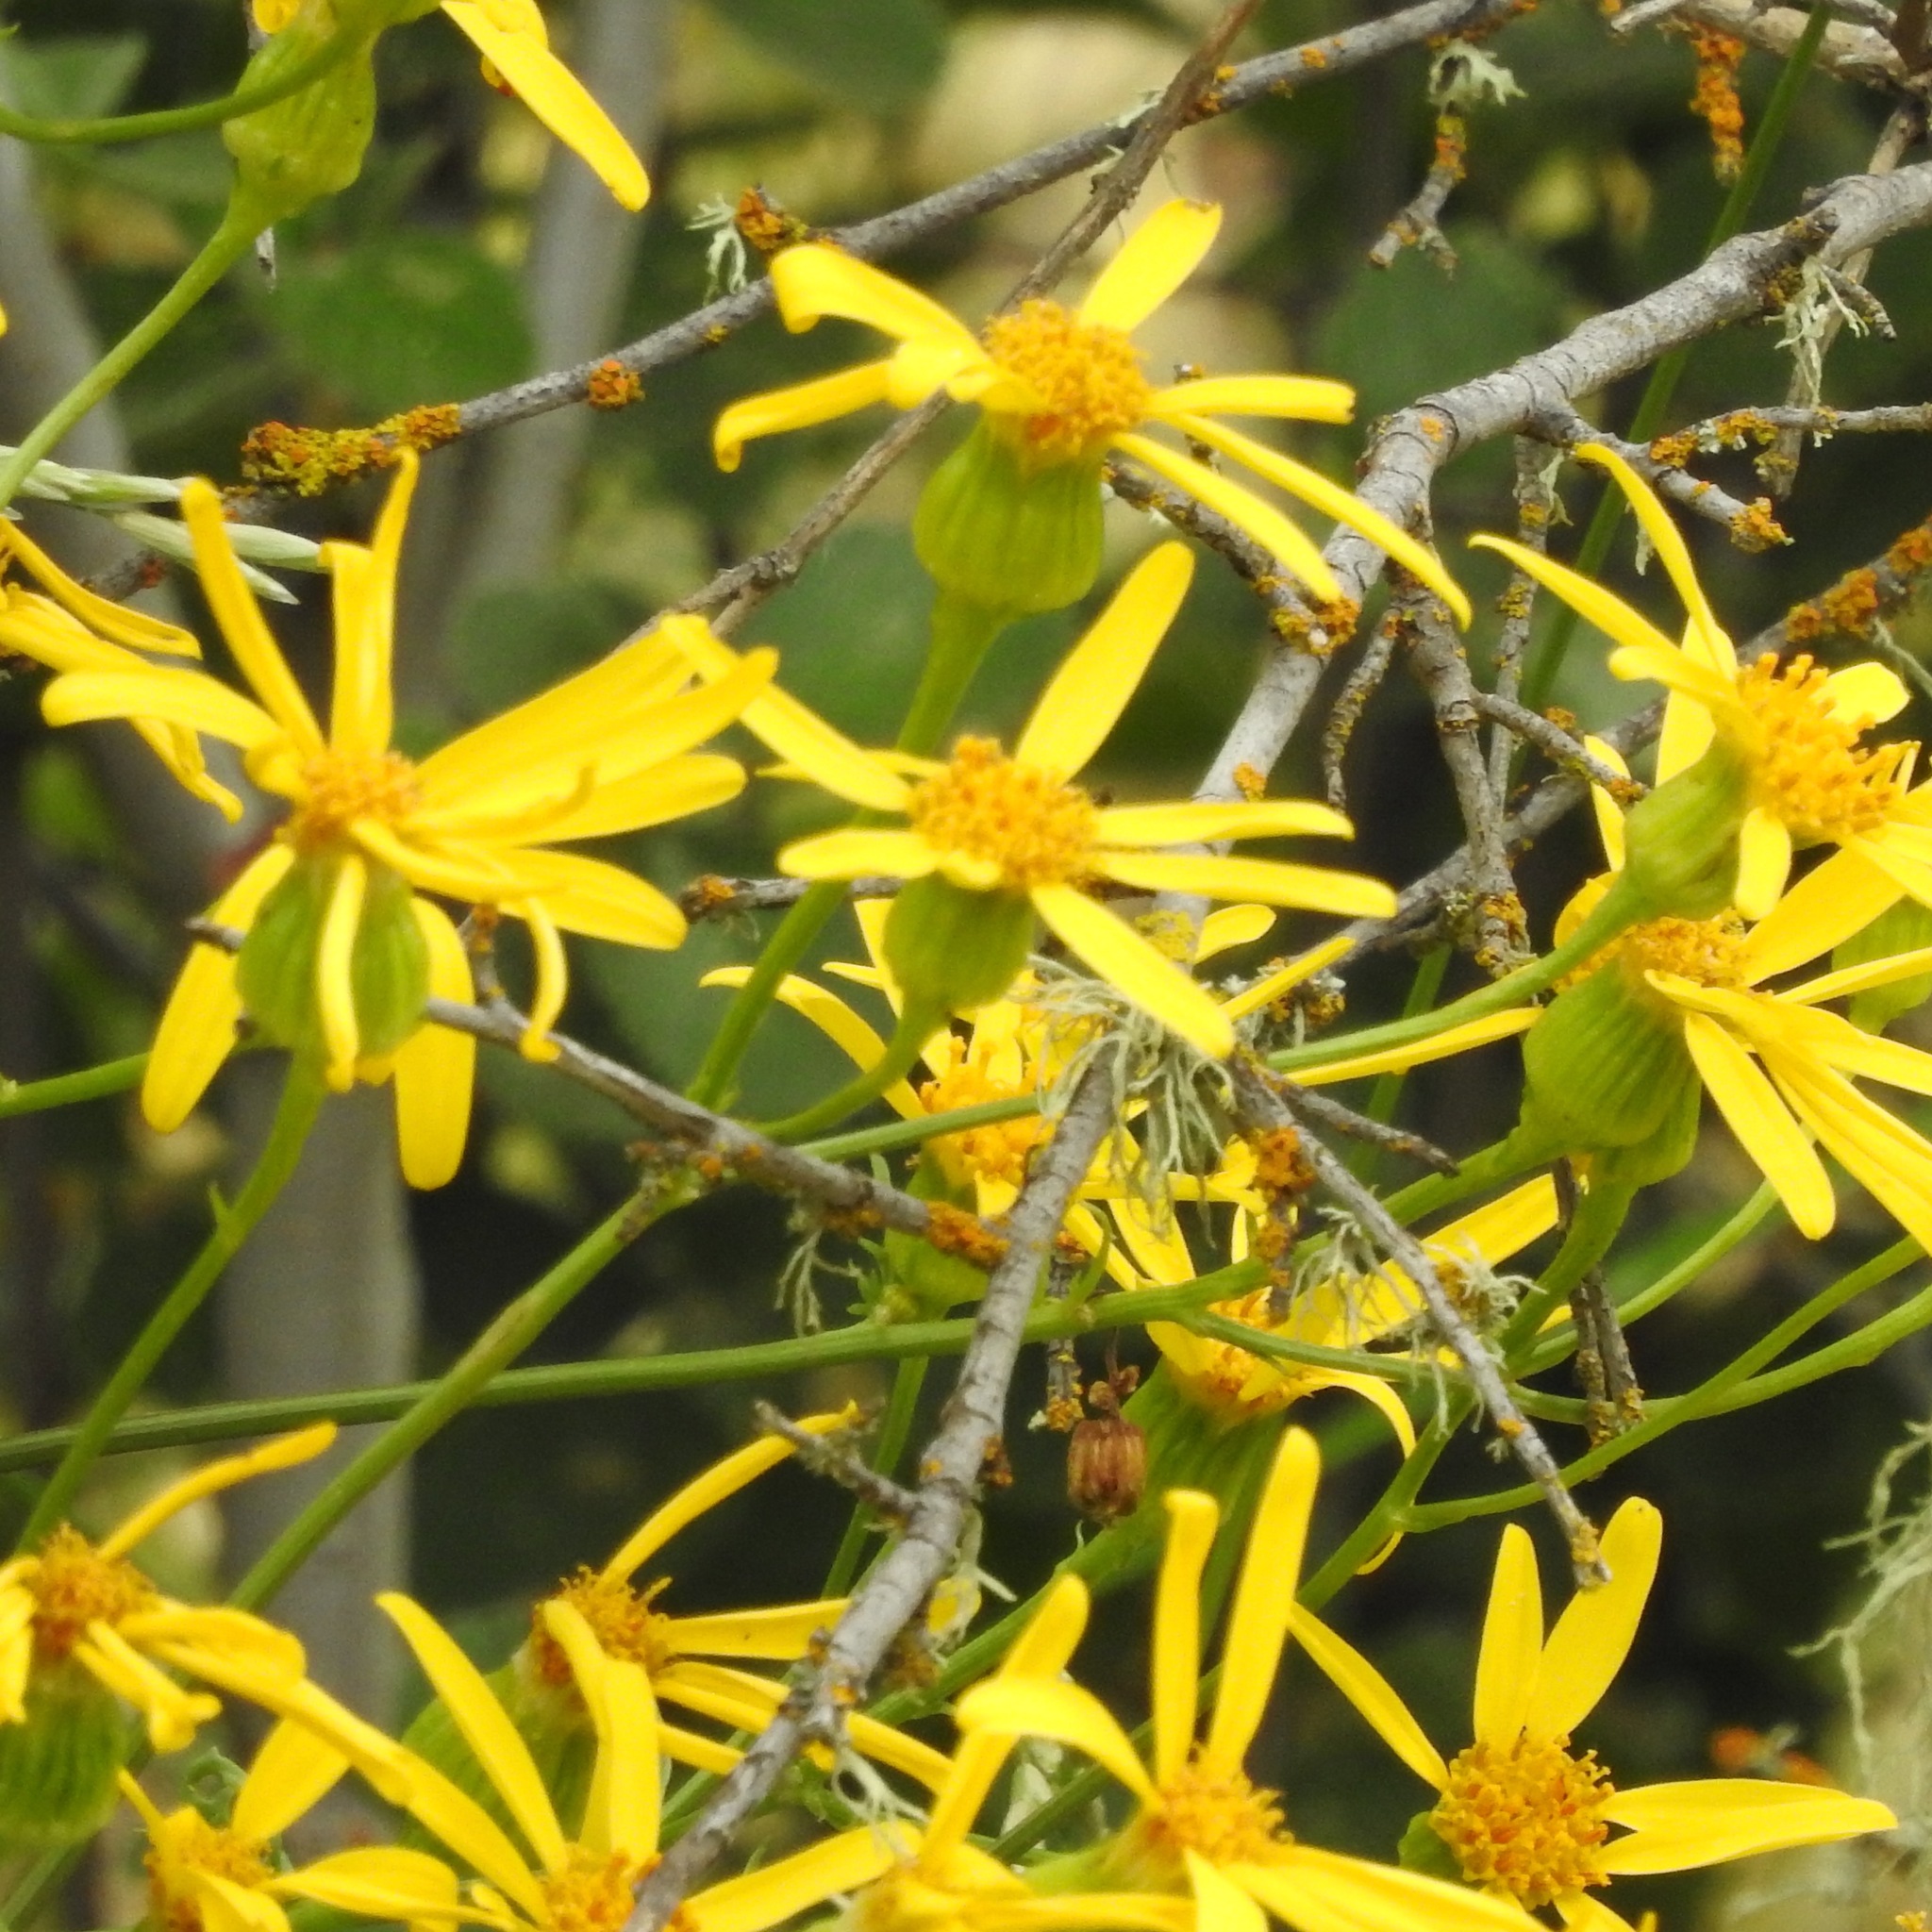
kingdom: Plantae
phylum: Tracheophyta
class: Magnoliopsida
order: Asterales
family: Asteraceae
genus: Packera
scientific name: Packera breweri
